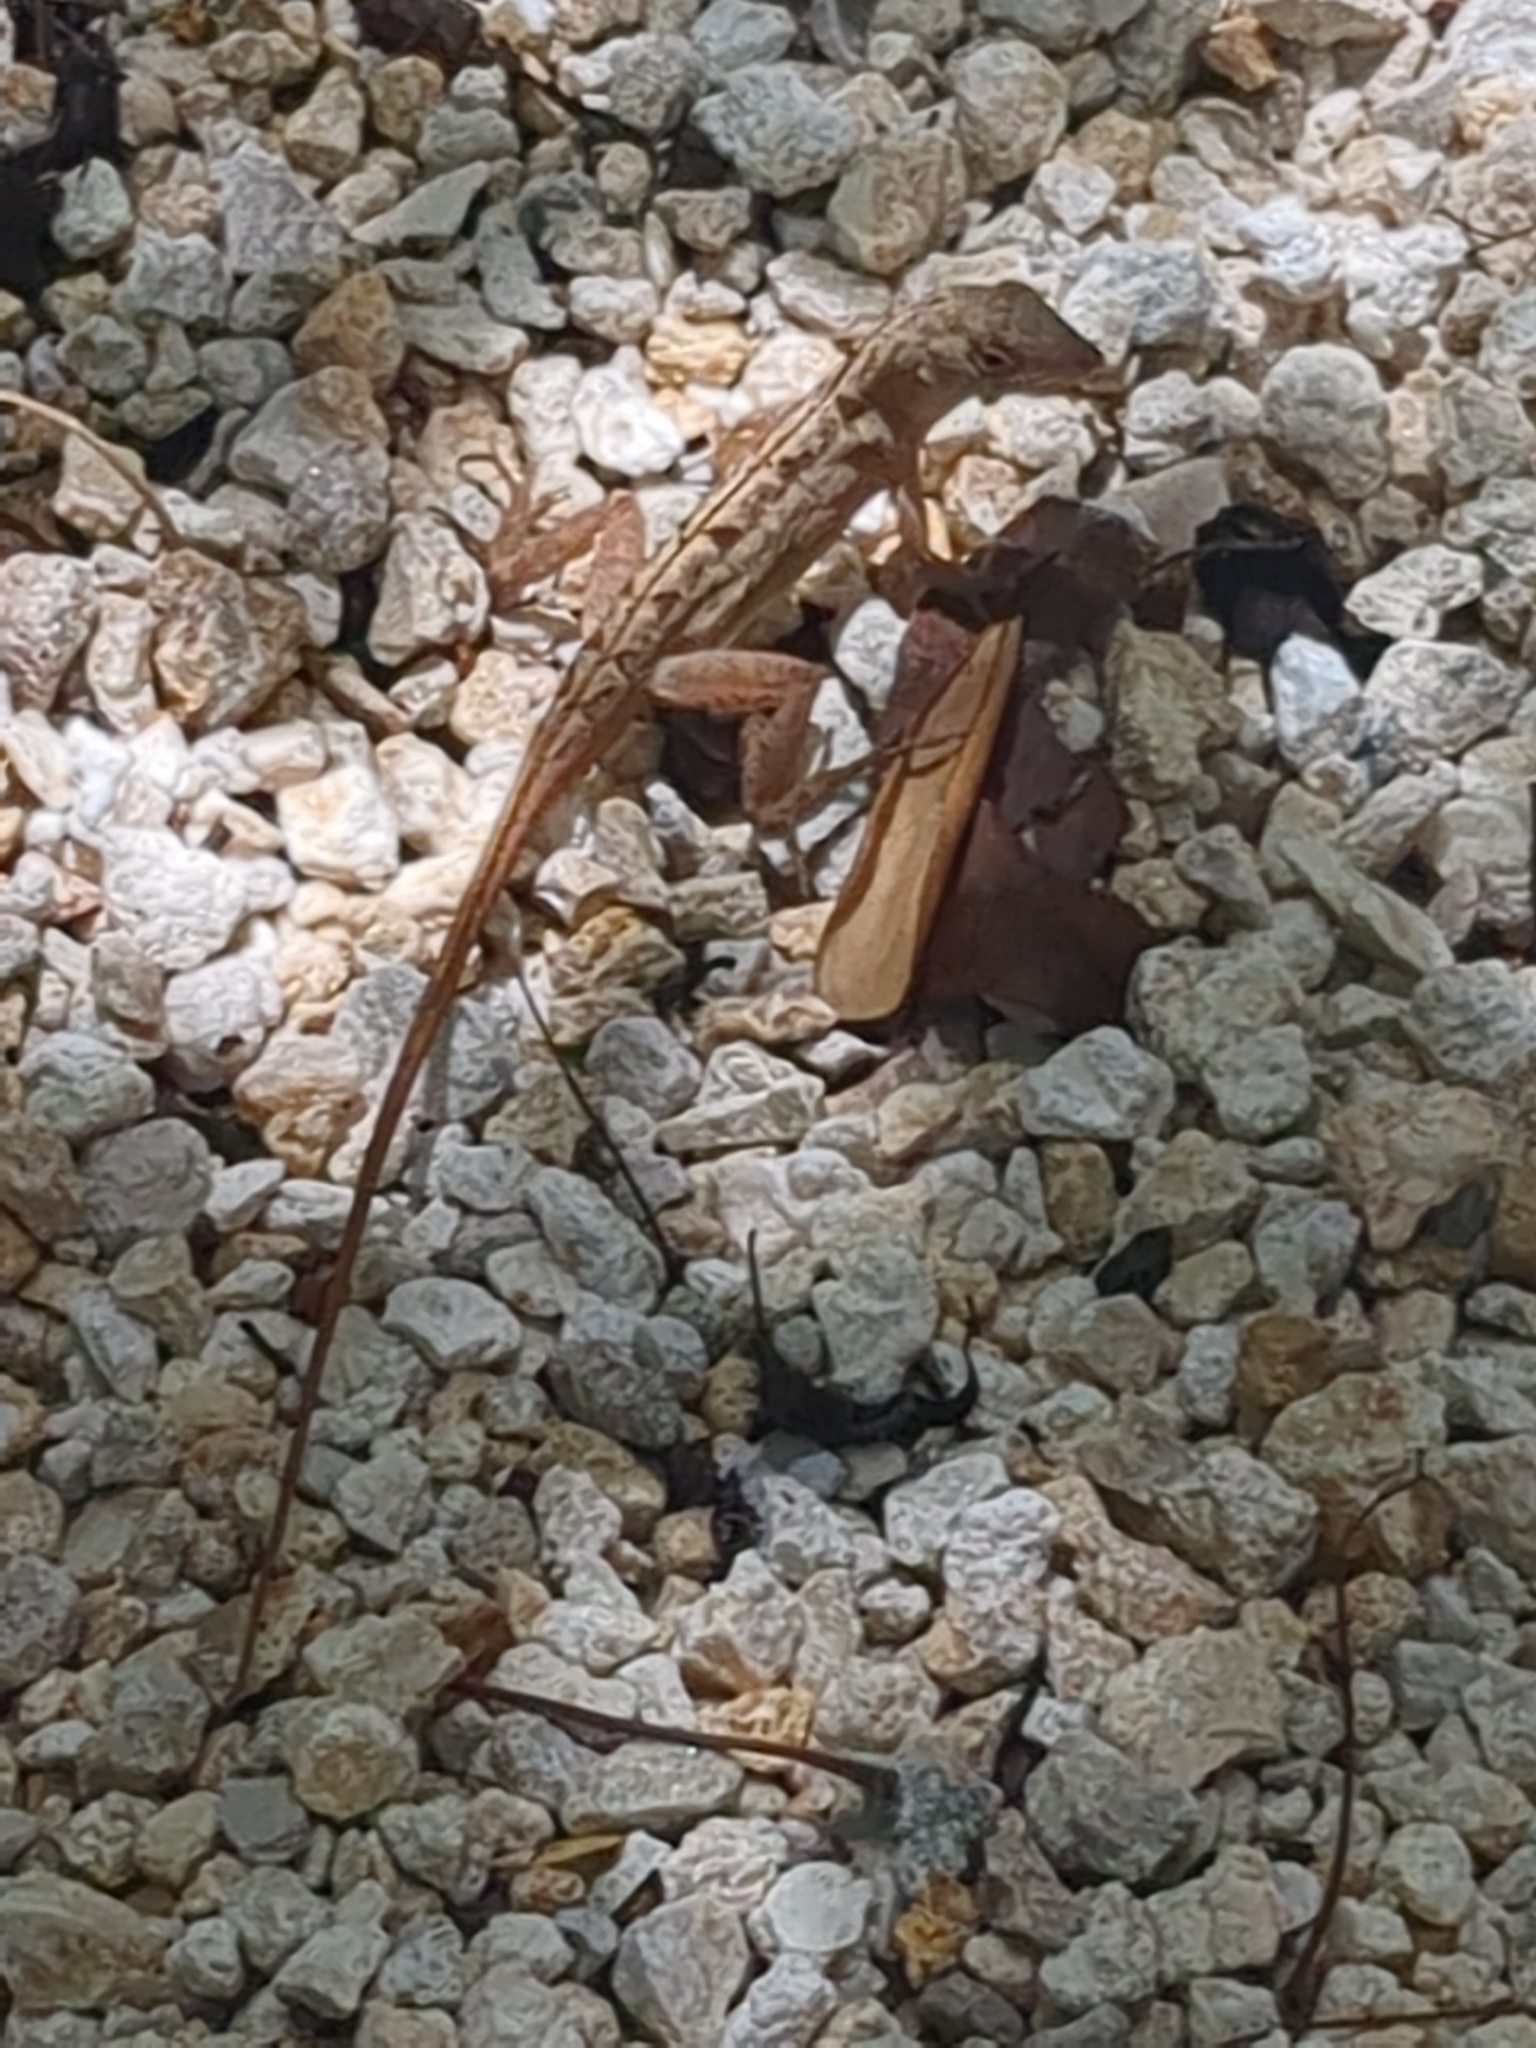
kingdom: Animalia
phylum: Chordata
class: Squamata
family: Dactyloidae
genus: Anolis
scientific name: Anolis sagrei
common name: Brown anole
